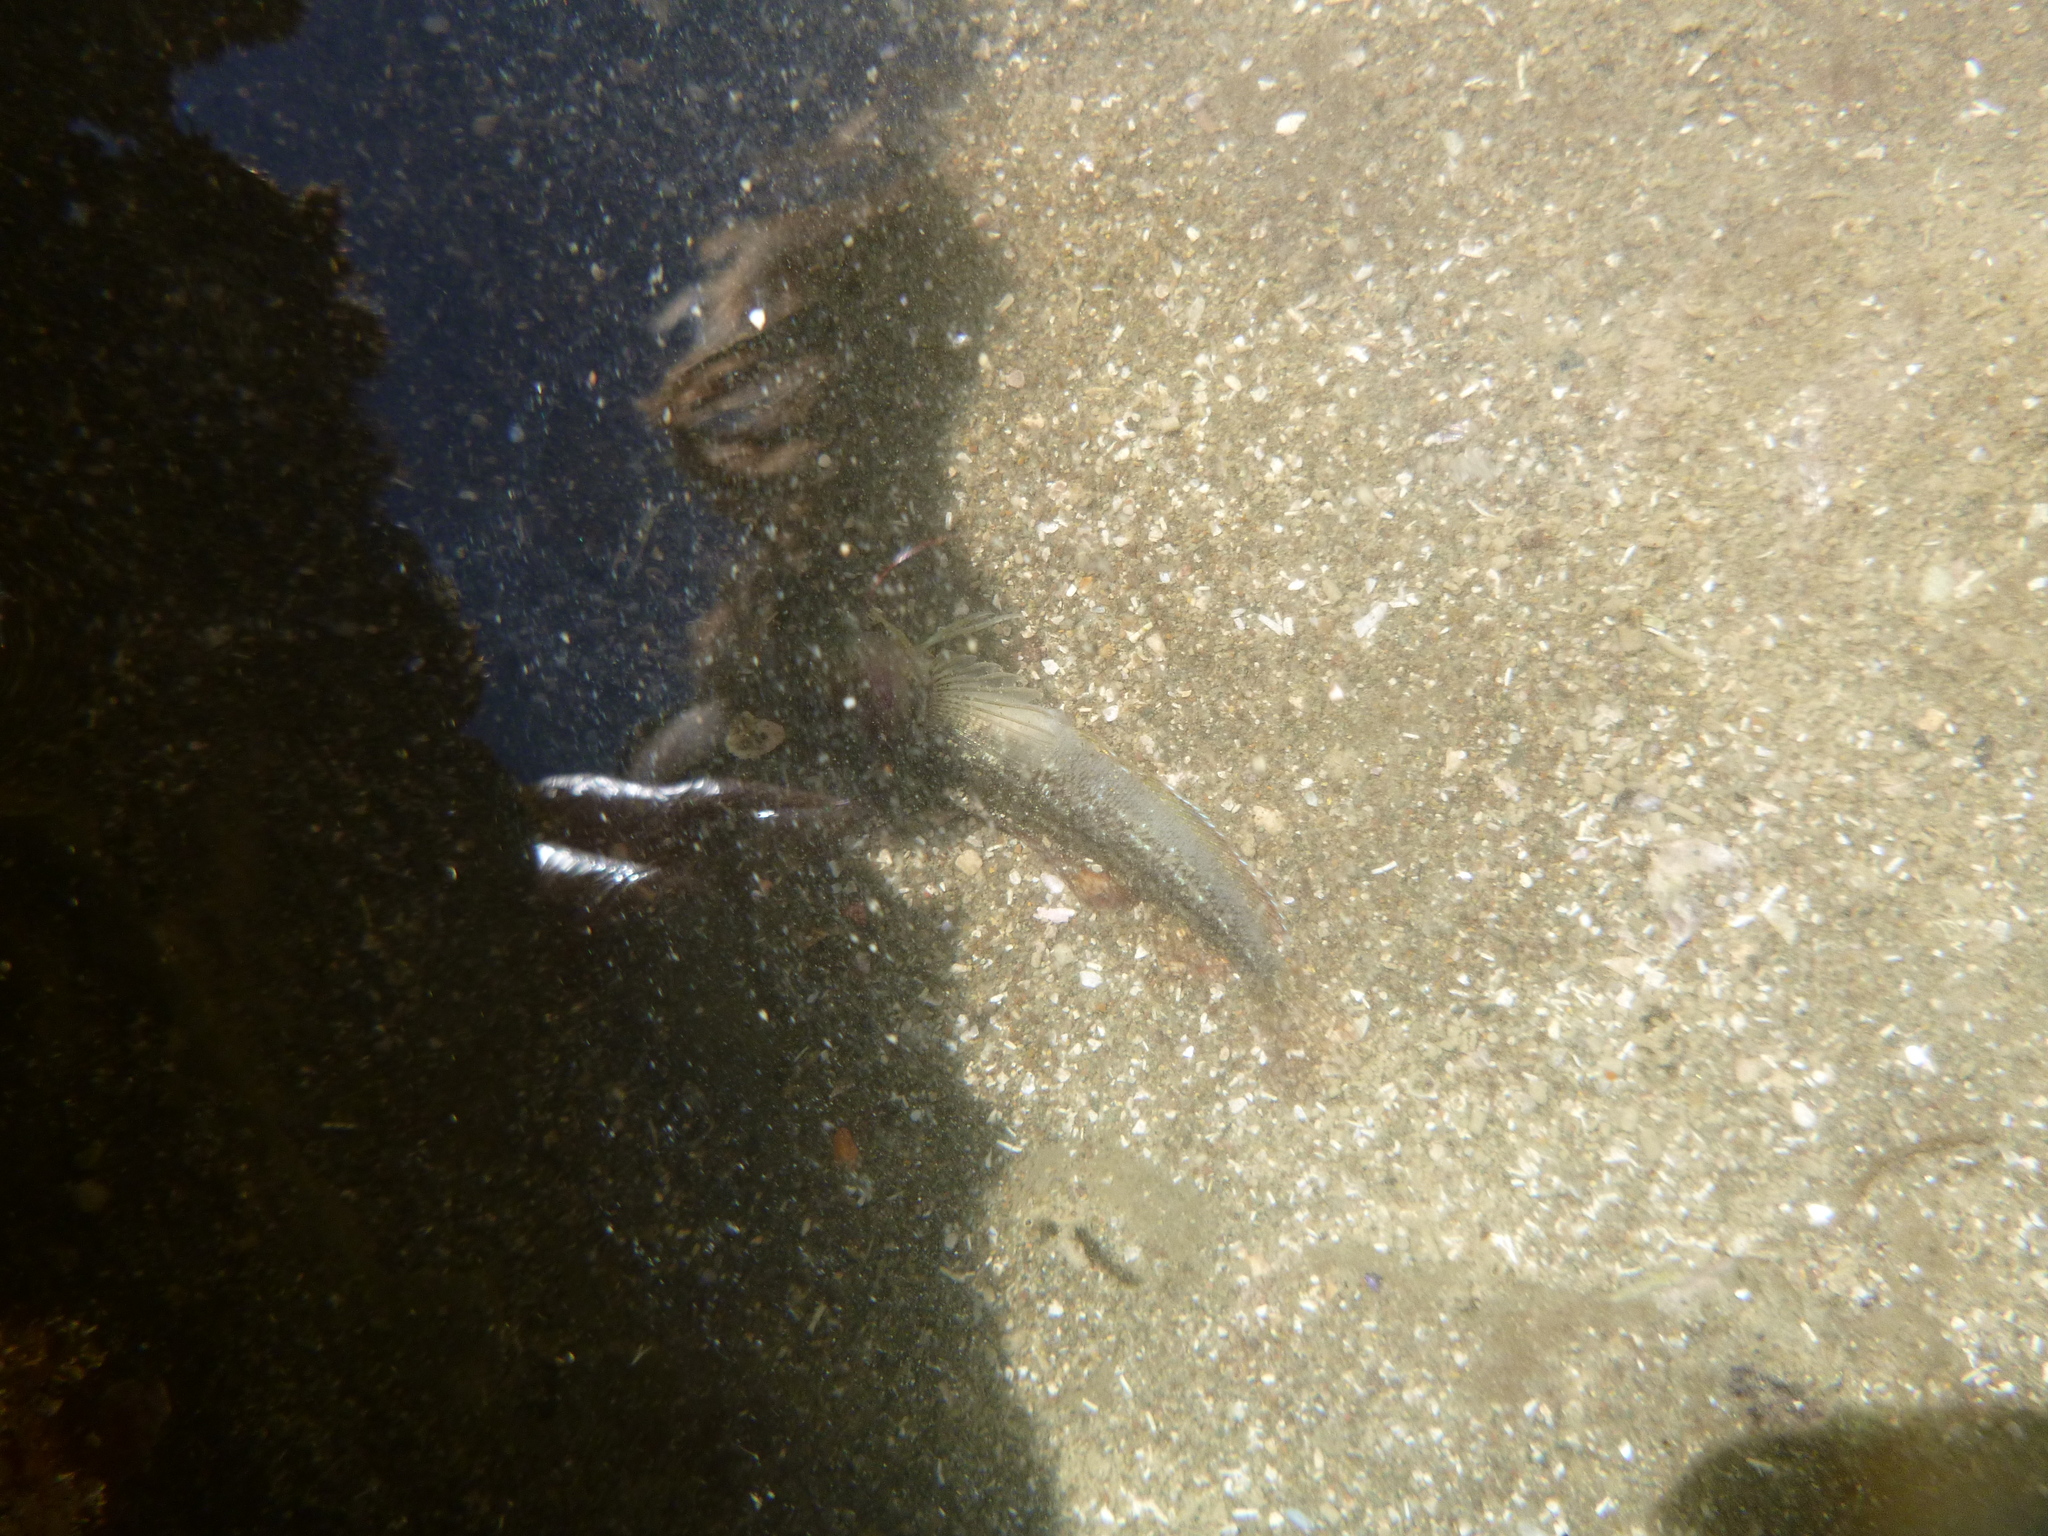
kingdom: Animalia
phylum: Chordata
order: Perciformes
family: Tripterygiidae
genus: Forsterygion
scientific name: Forsterygion lapillum
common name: Common triplefin
